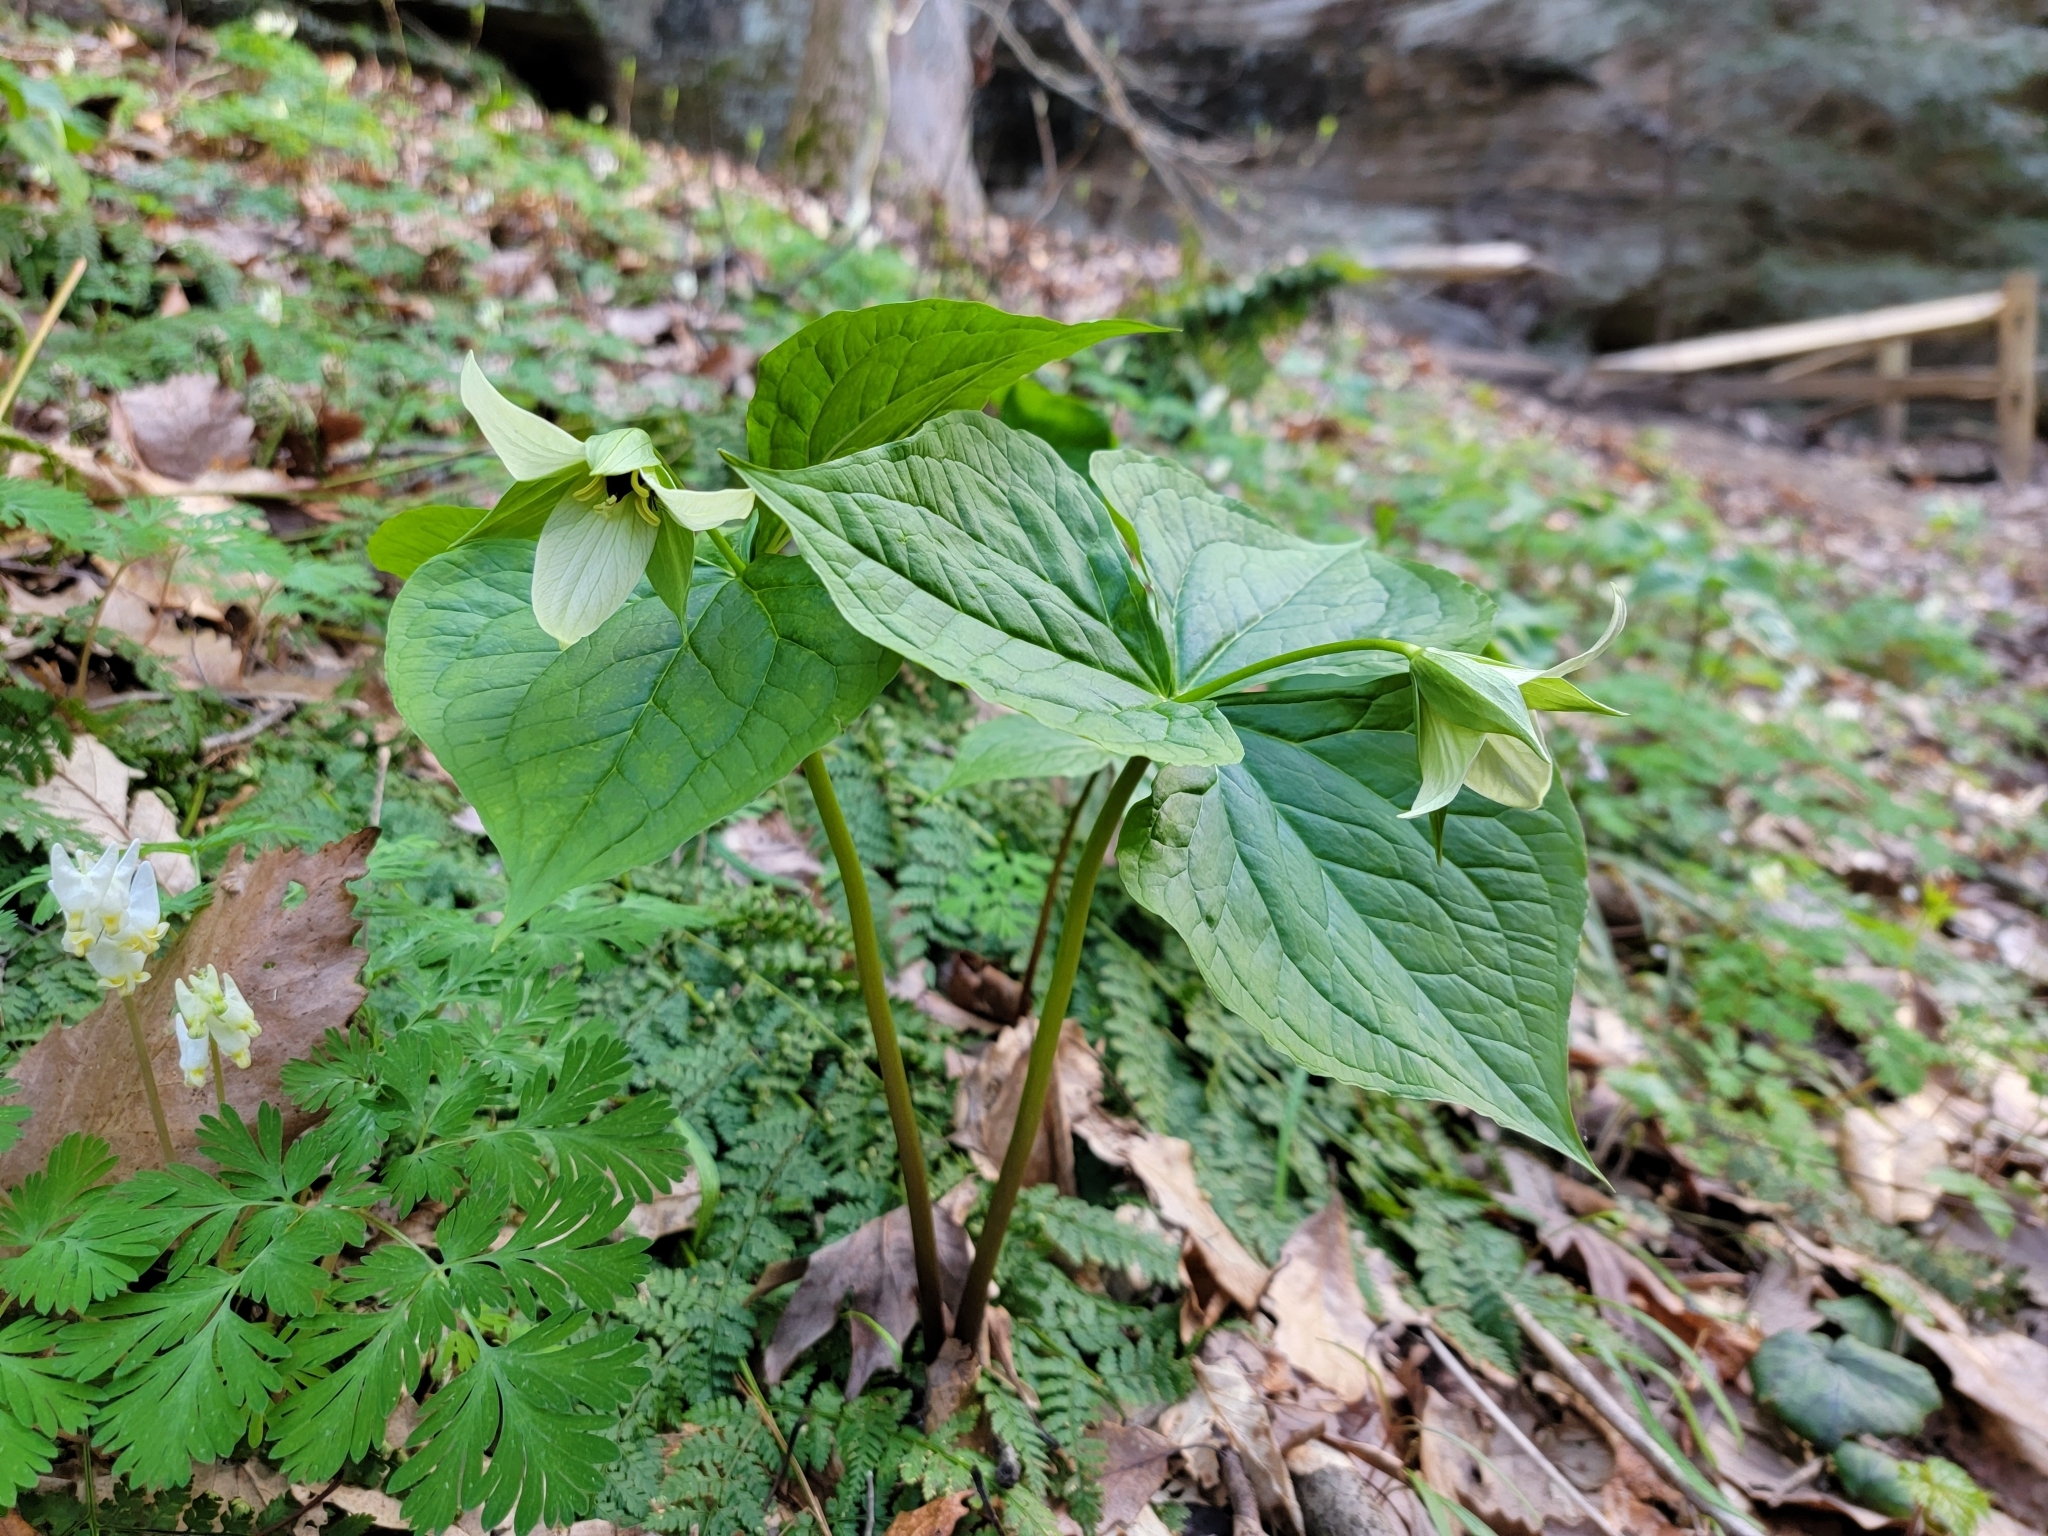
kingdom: Plantae
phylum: Tracheophyta
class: Liliopsida
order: Liliales
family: Melanthiaceae
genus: Trillium
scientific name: Trillium erectum
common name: Purple trillium
